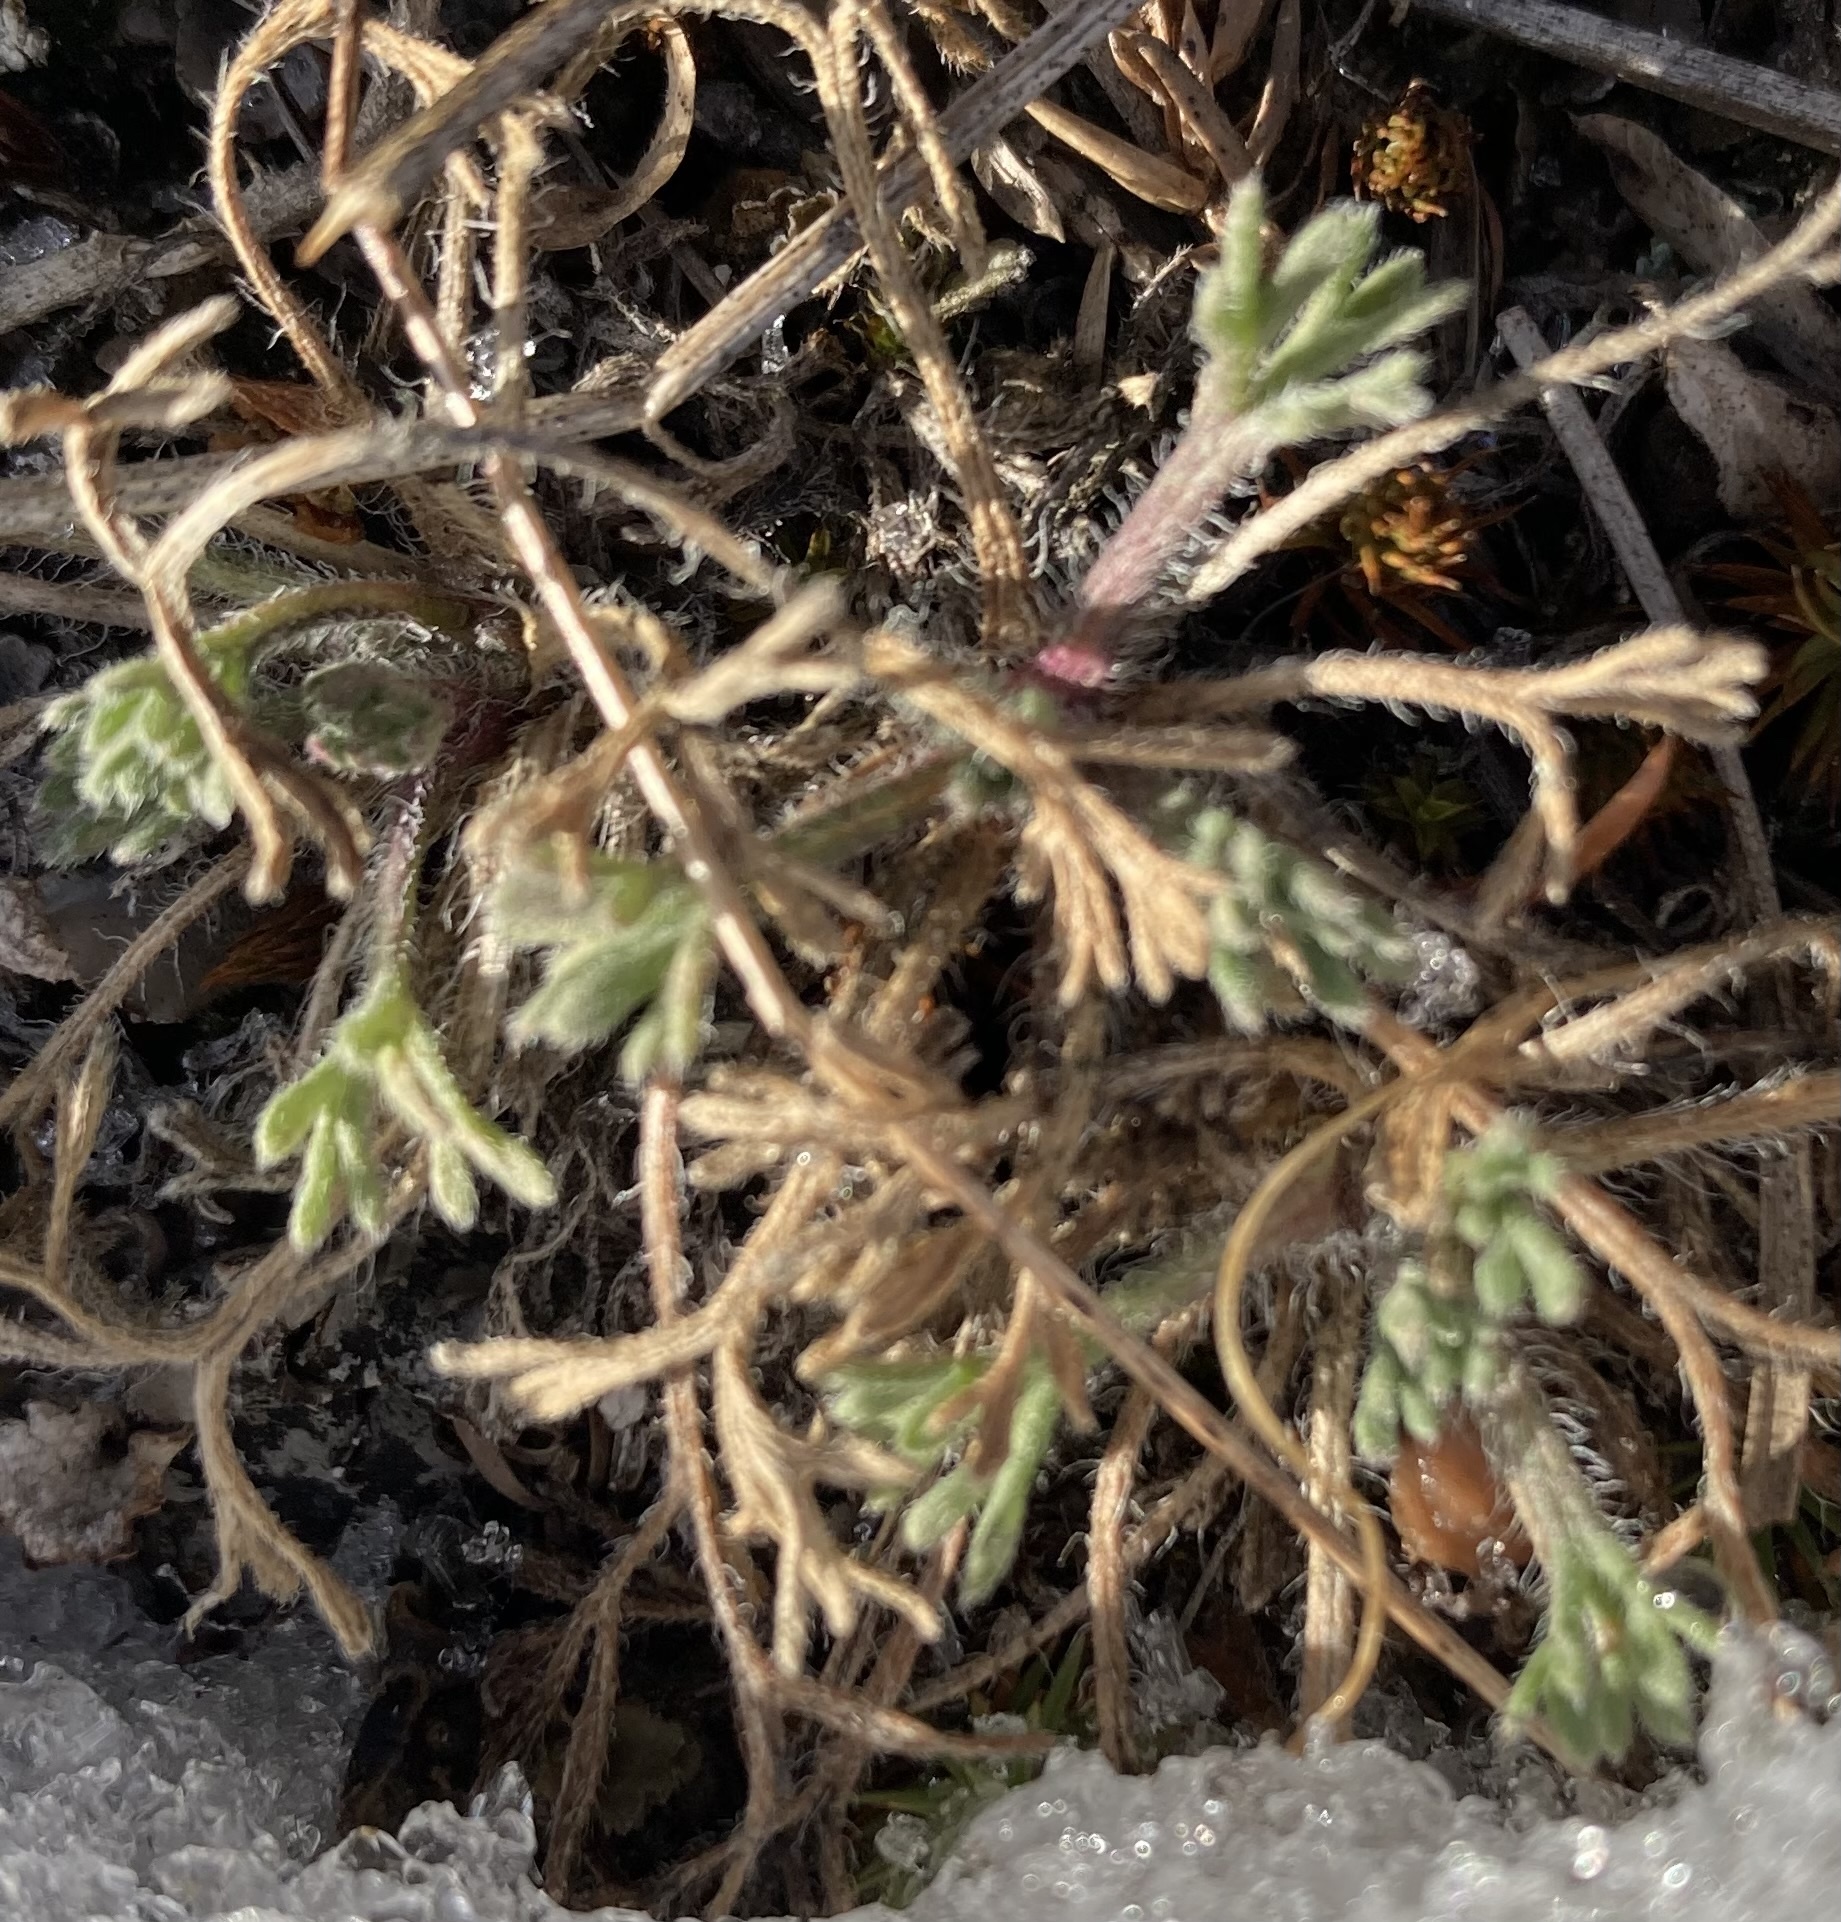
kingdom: Plantae
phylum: Tracheophyta
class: Magnoliopsida
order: Asterales
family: Asteraceae
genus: Erigeron
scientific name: Erigeron compositus
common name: Dwarf mountain fleabane
